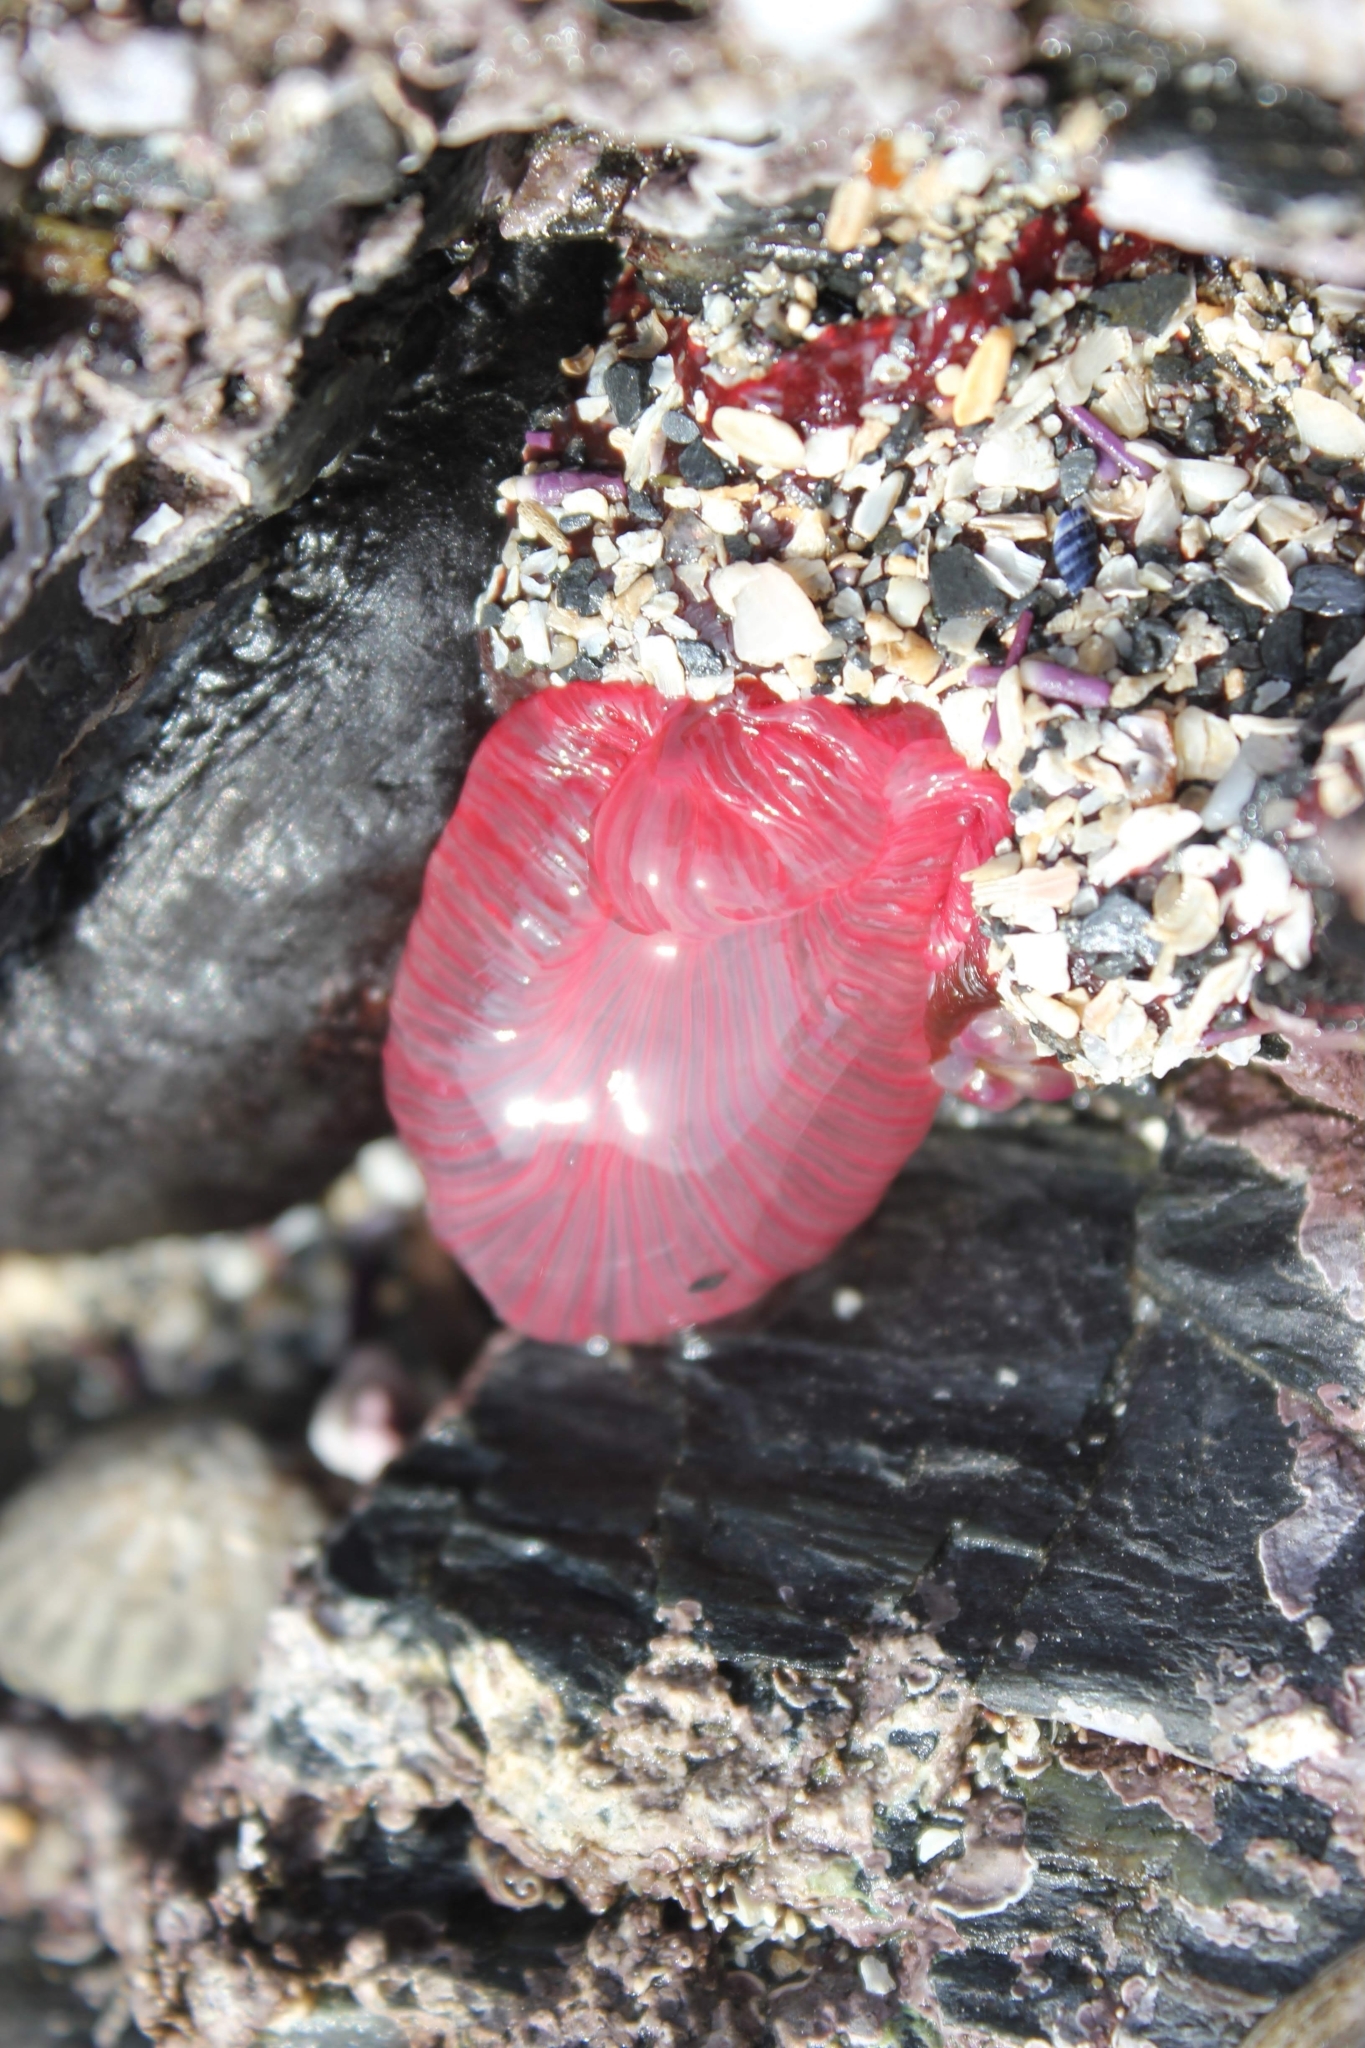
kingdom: Animalia
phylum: Cnidaria
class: Anthozoa
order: Actiniaria
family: Actiniidae
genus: Urticina
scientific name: Urticina clandestina
